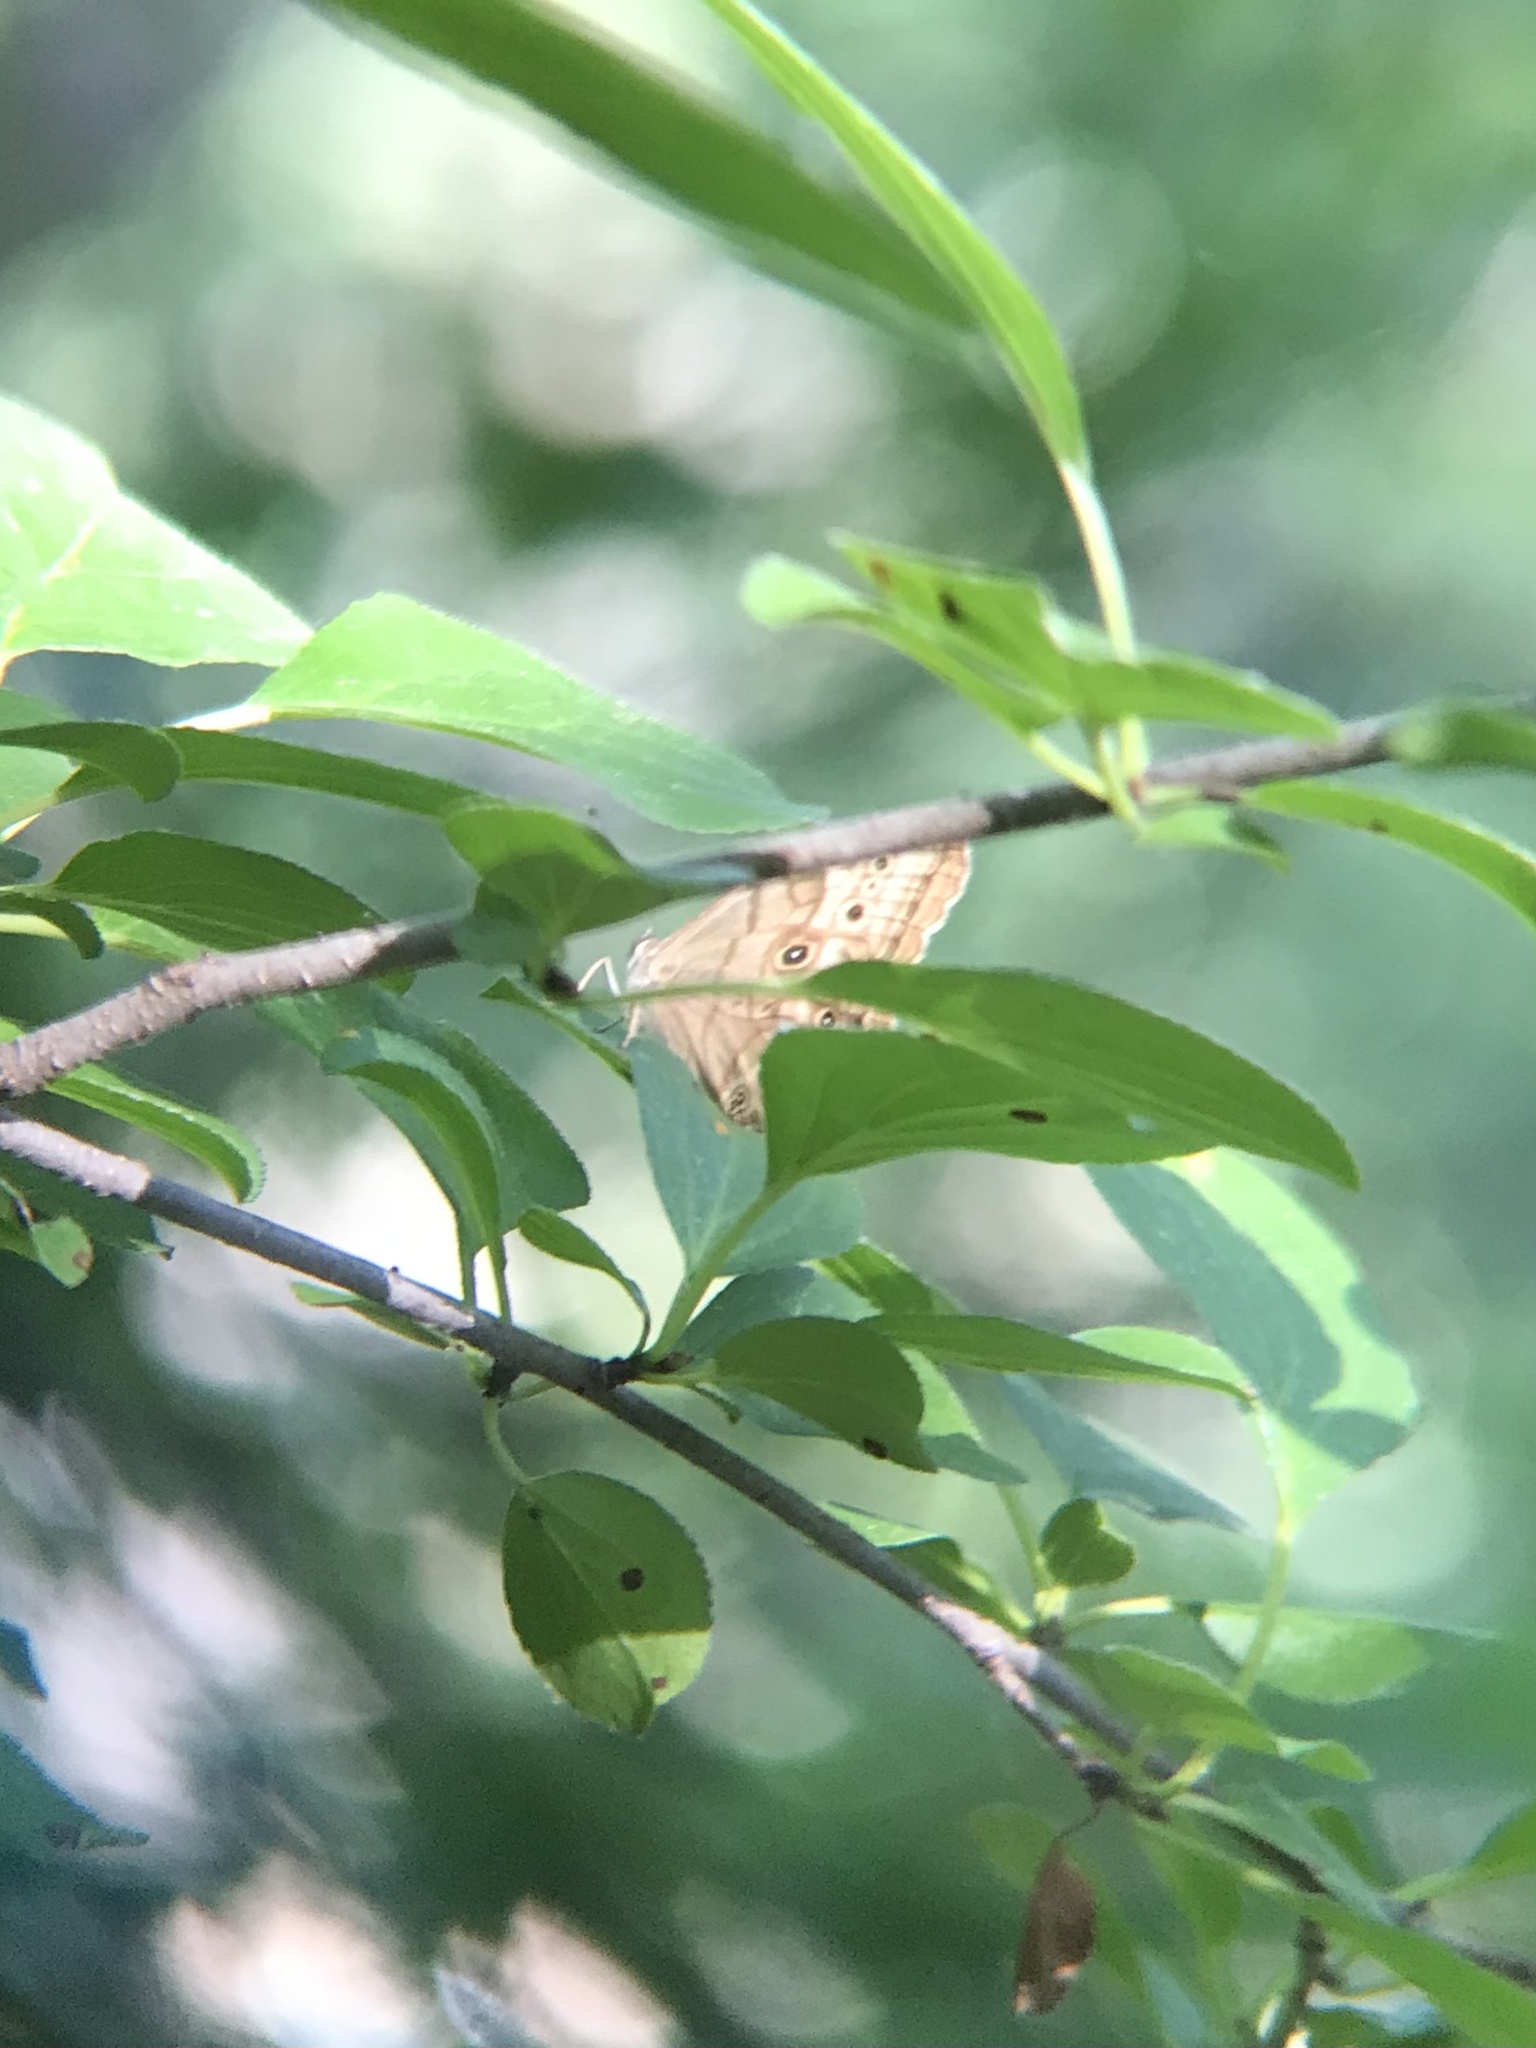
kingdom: Animalia
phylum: Arthropoda
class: Insecta
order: Lepidoptera
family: Nymphalidae
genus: Lethe
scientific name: Lethe anthedon
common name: Northern pearly-eye
